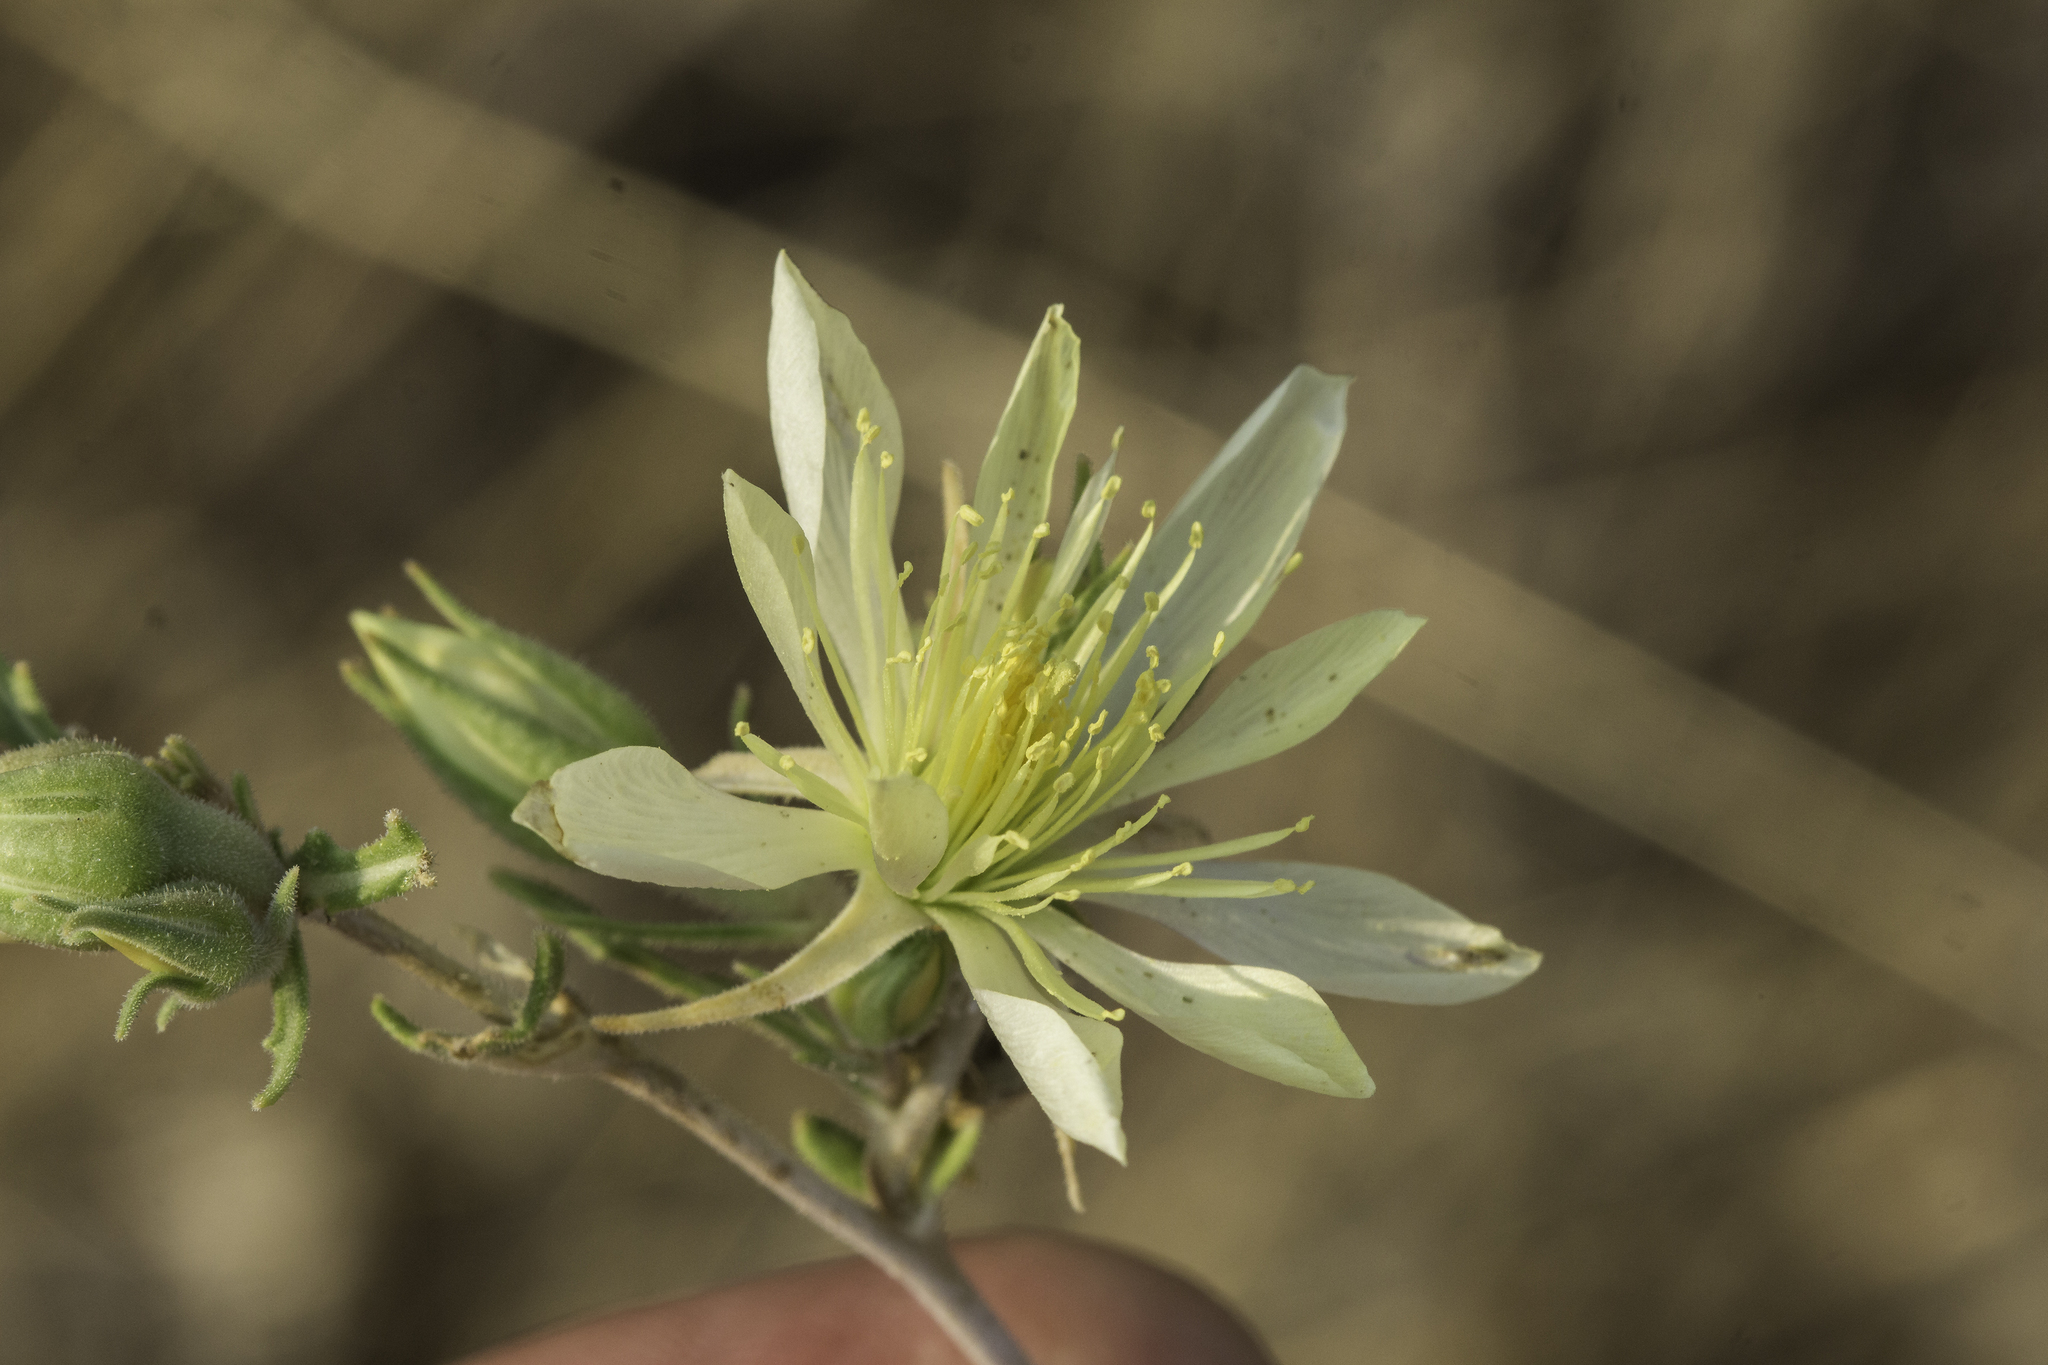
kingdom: Plantae
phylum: Tracheophyta
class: Magnoliopsida
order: Cornales
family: Loasaceae
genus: Mentzelia
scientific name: Mentzelia multiflora
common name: Adonis blazingstar
